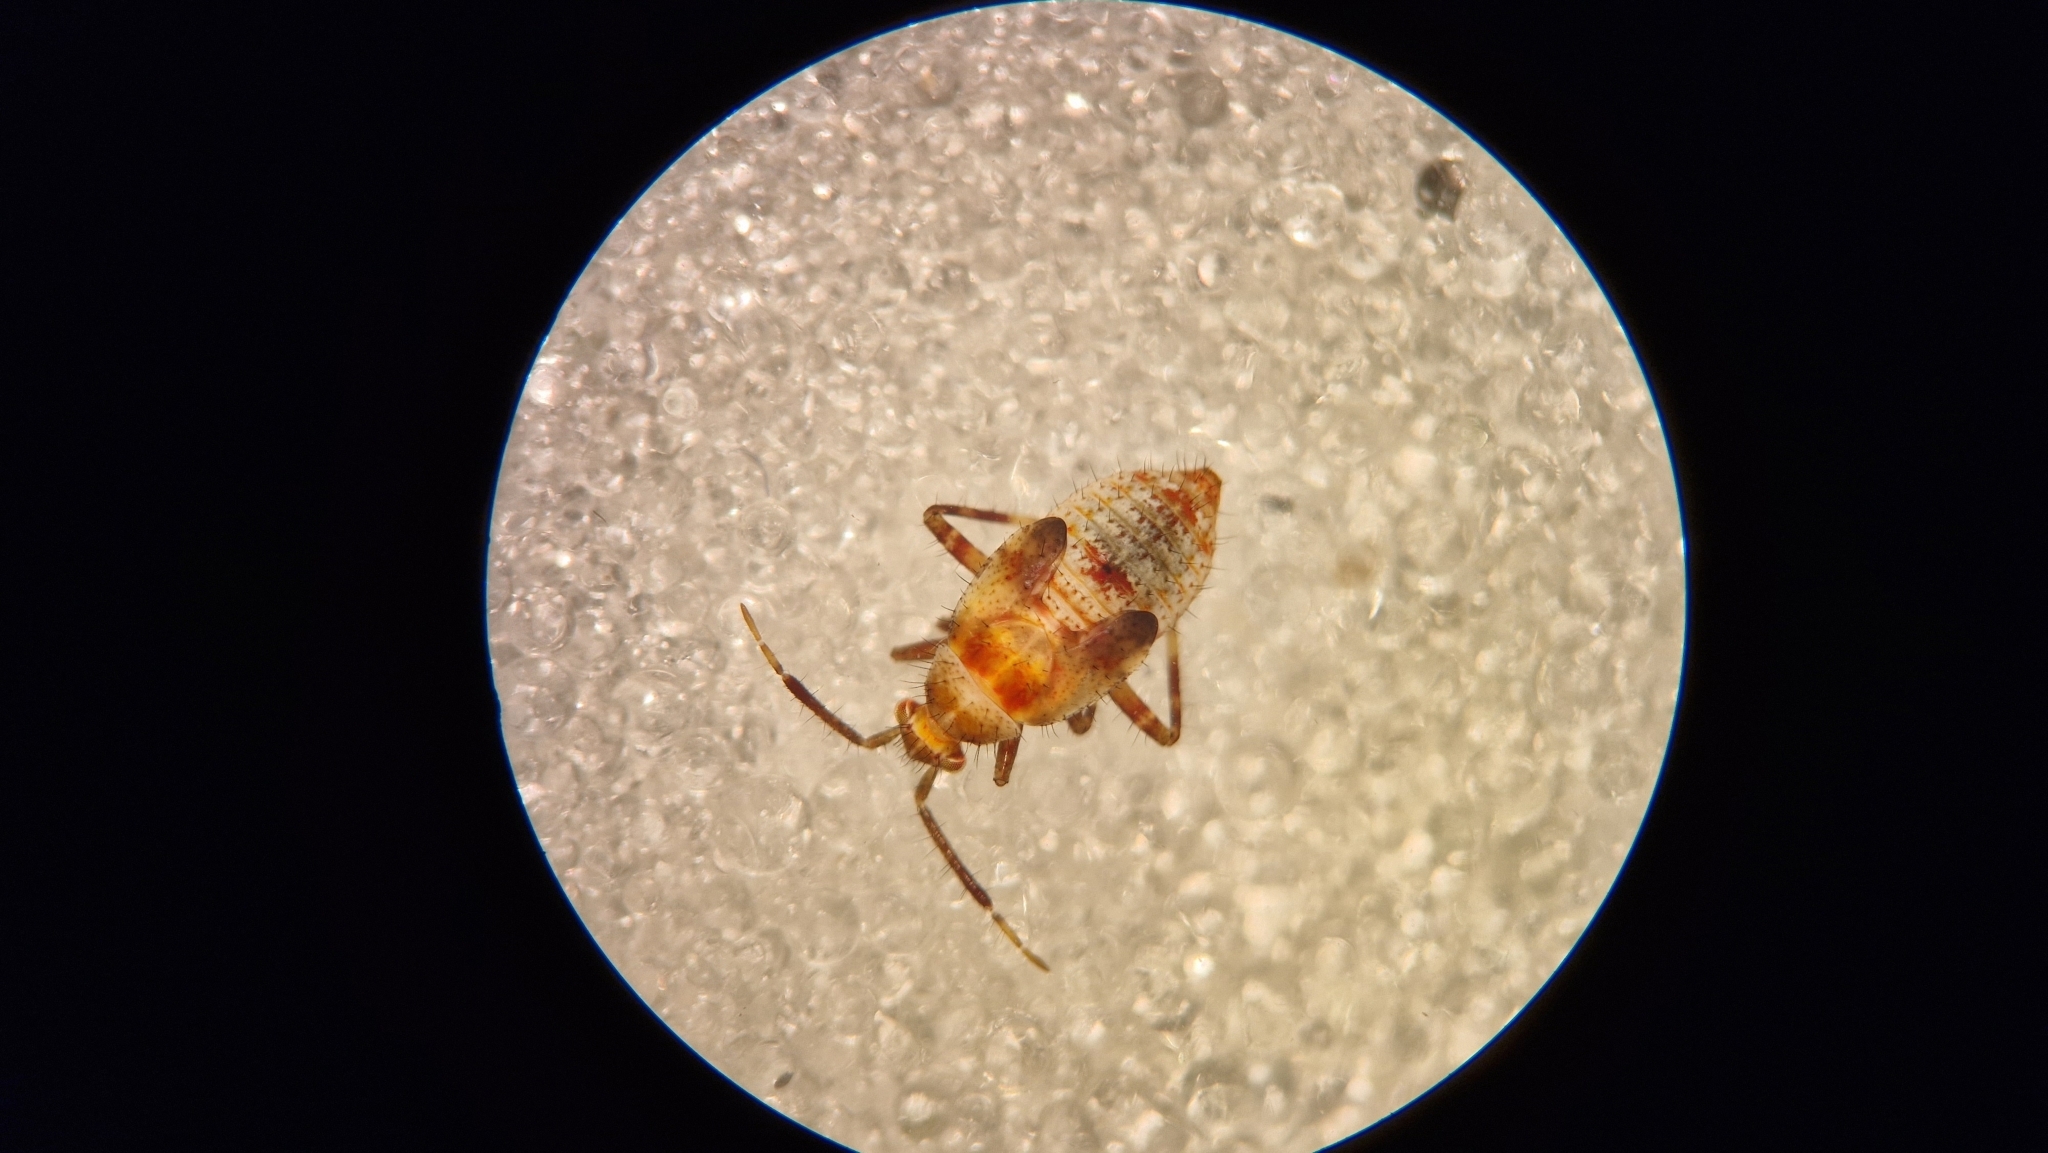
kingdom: Animalia
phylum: Arthropoda
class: Insecta
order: Hemiptera
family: Miridae
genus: Deraeocoris
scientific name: Deraeocoris flavilinea
